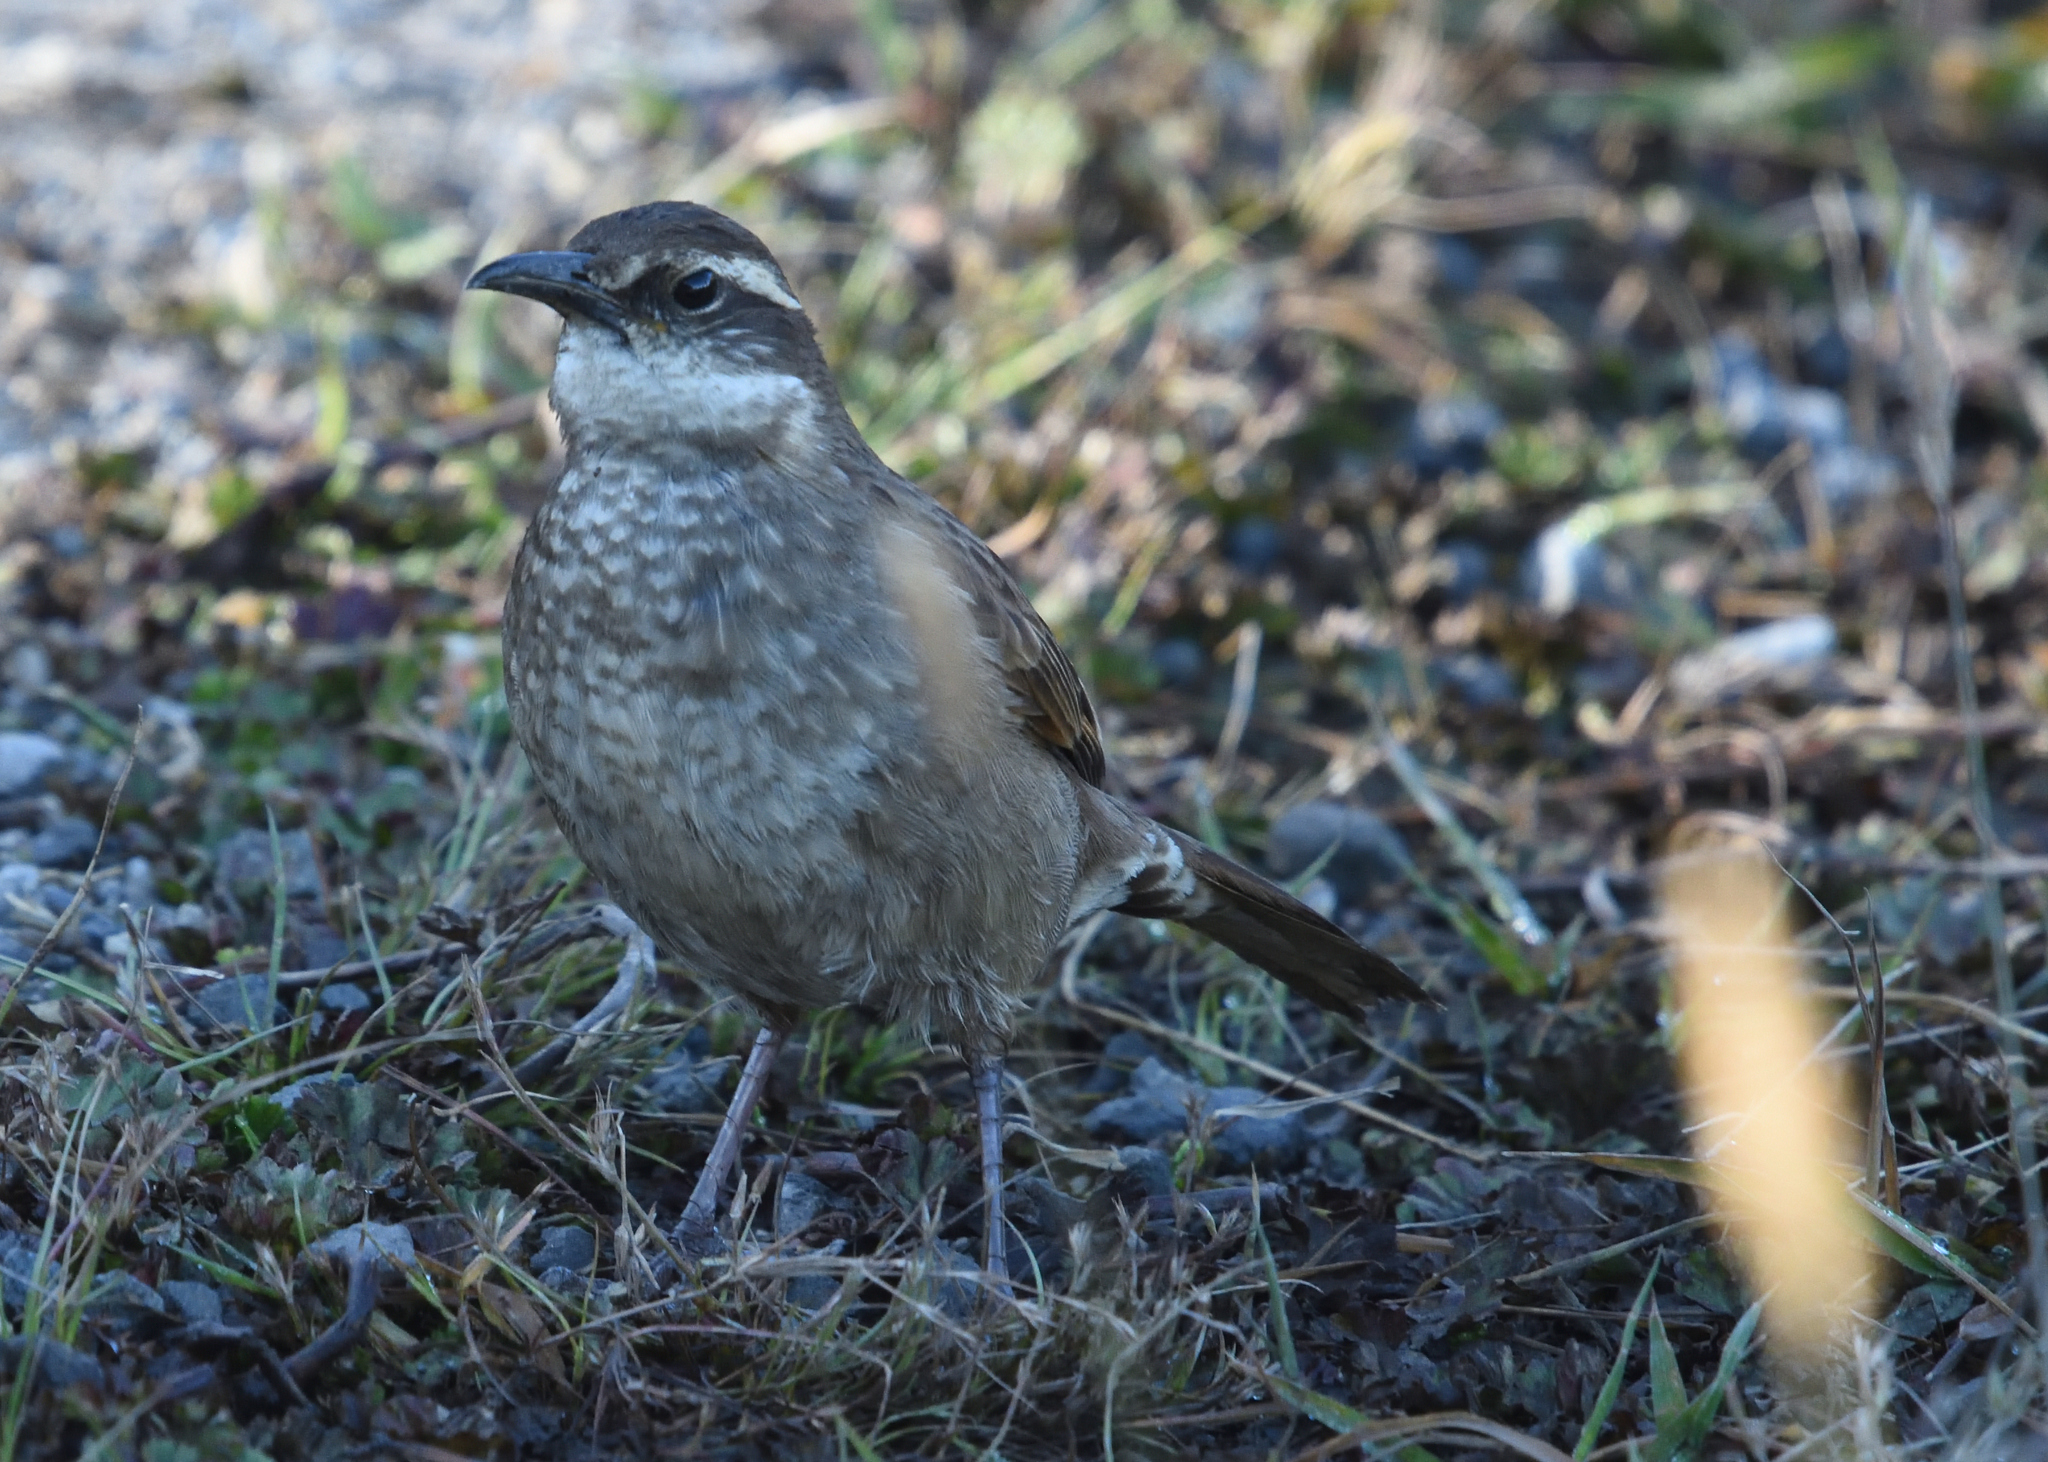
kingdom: Animalia
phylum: Chordata
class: Aves
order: Passeriformes
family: Furnariidae
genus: Cinclodes
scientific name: Cinclodes excelsior
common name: Stout-billed cinclodes
